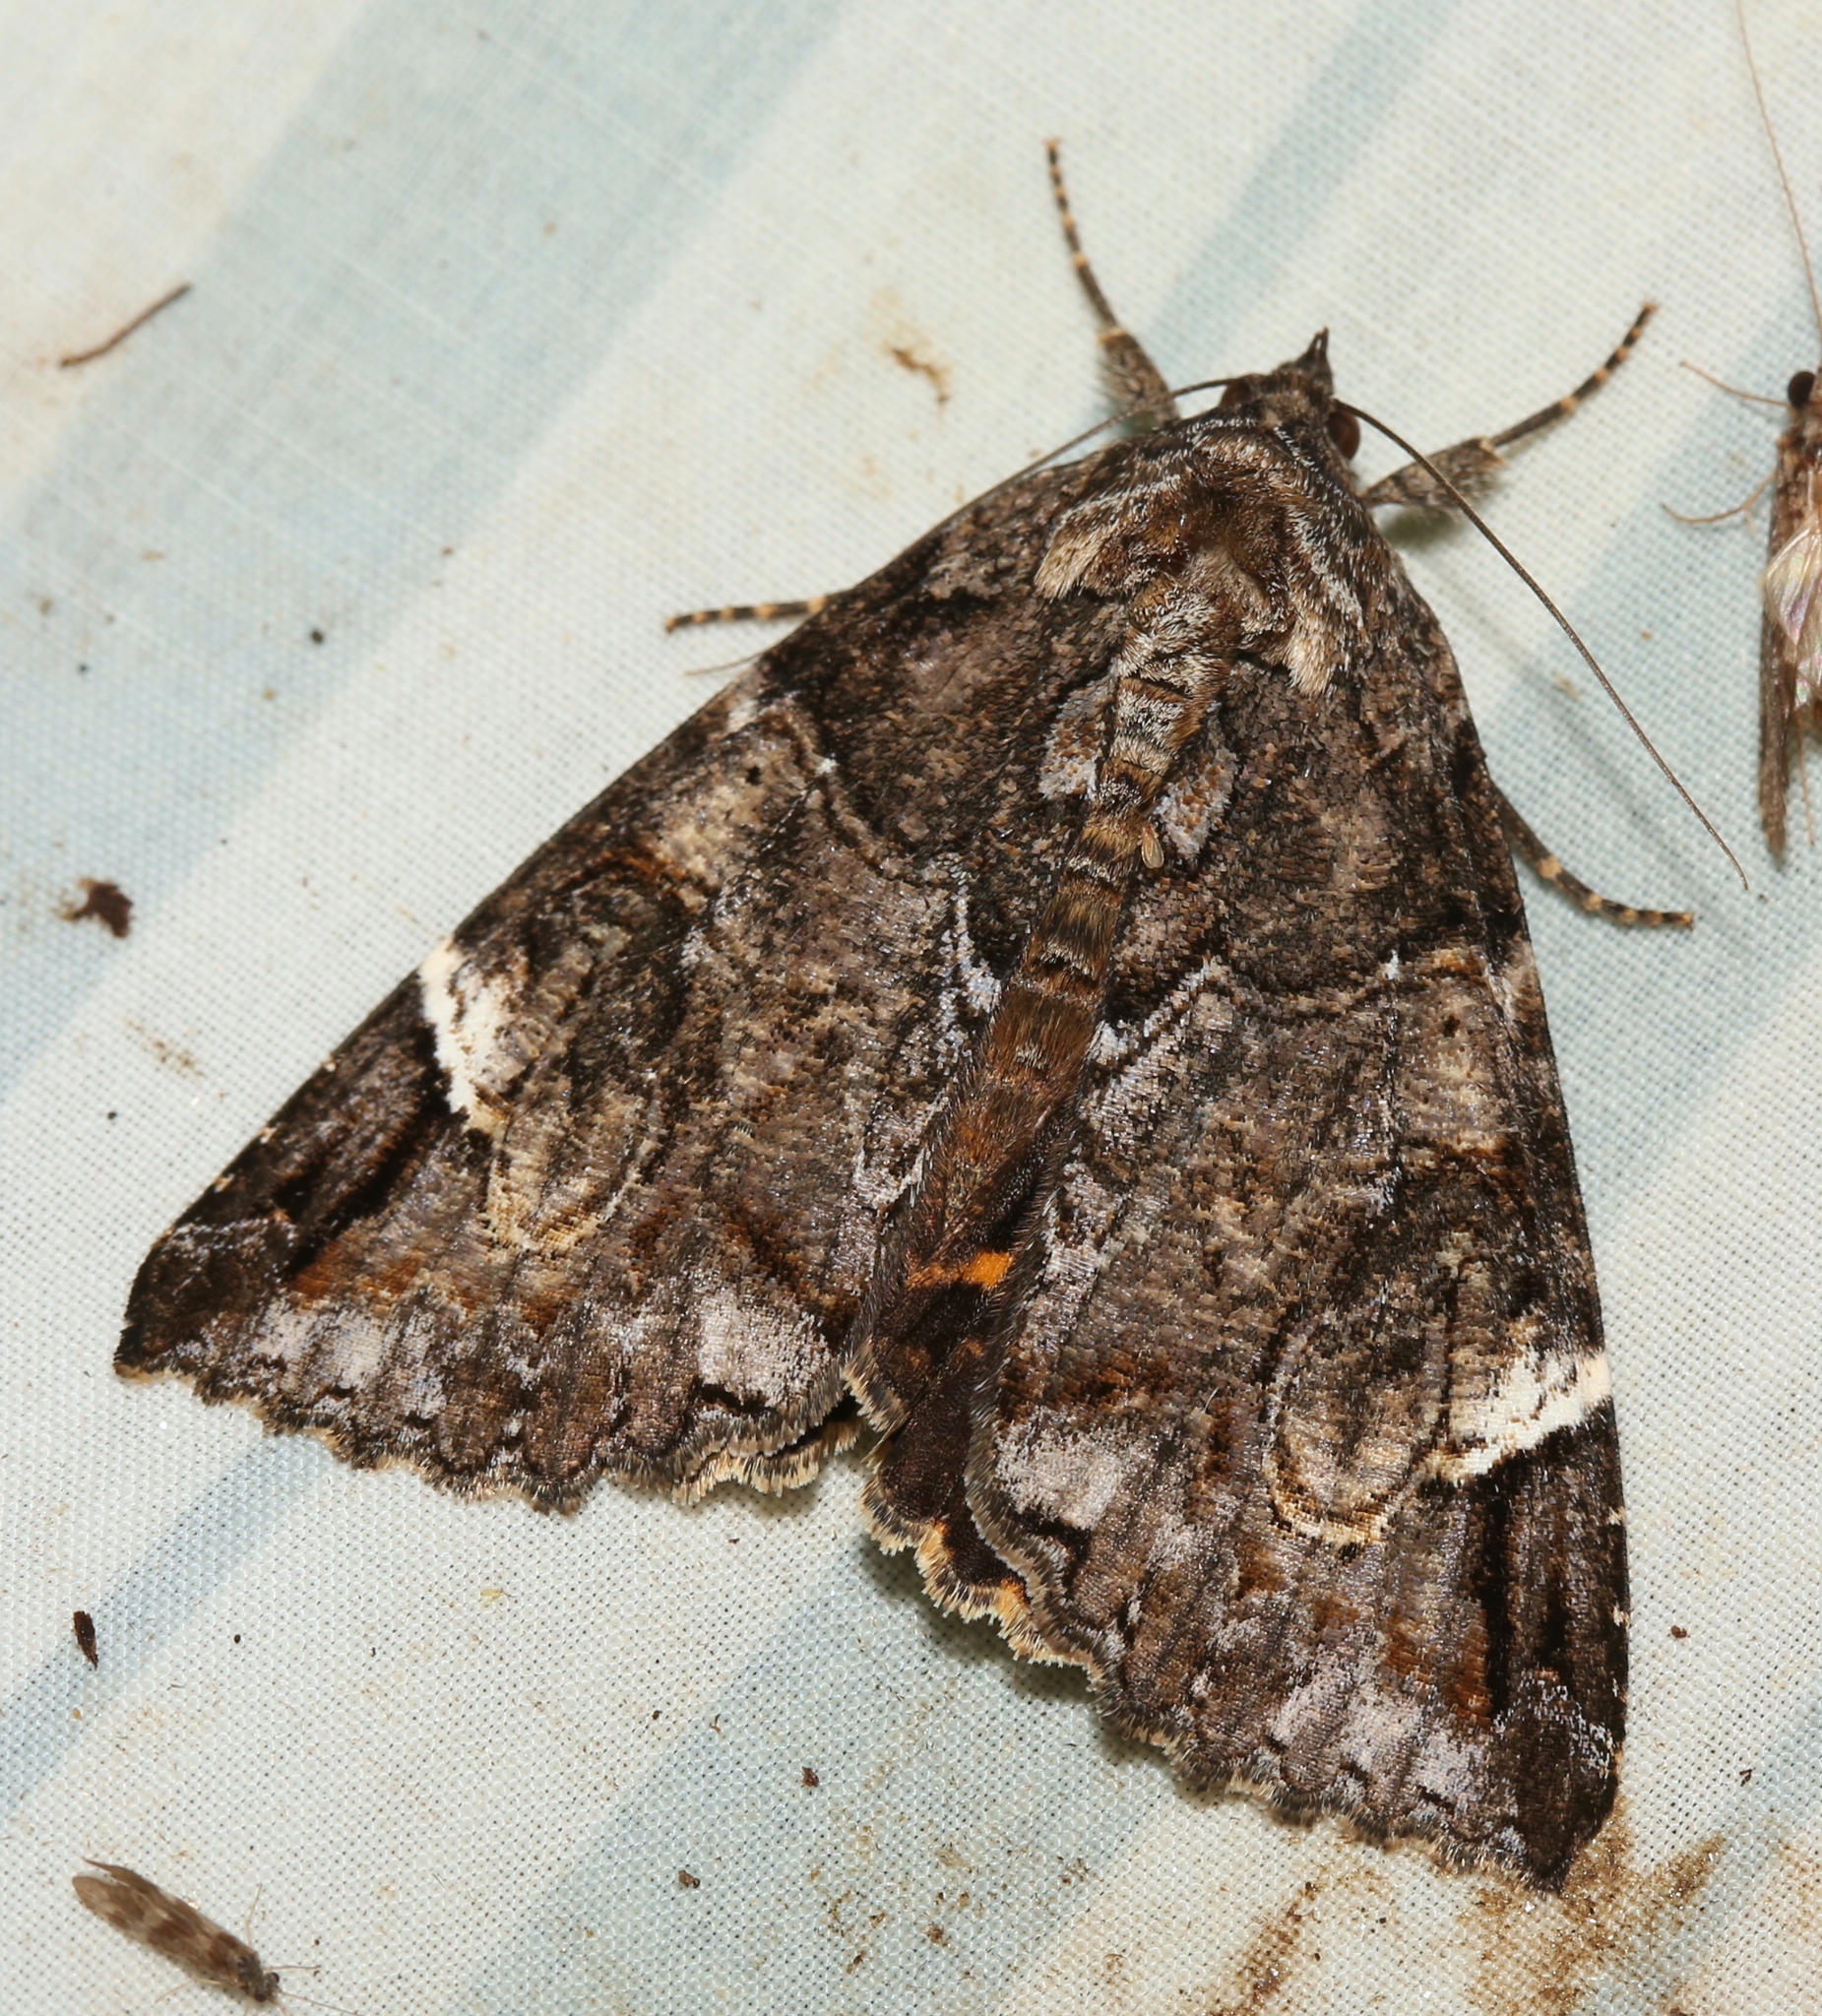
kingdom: Animalia
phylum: Arthropoda
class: Insecta
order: Lepidoptera
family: Erebidae
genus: Euparthenos
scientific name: Euparthenos nubilis
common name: Locust underwing
